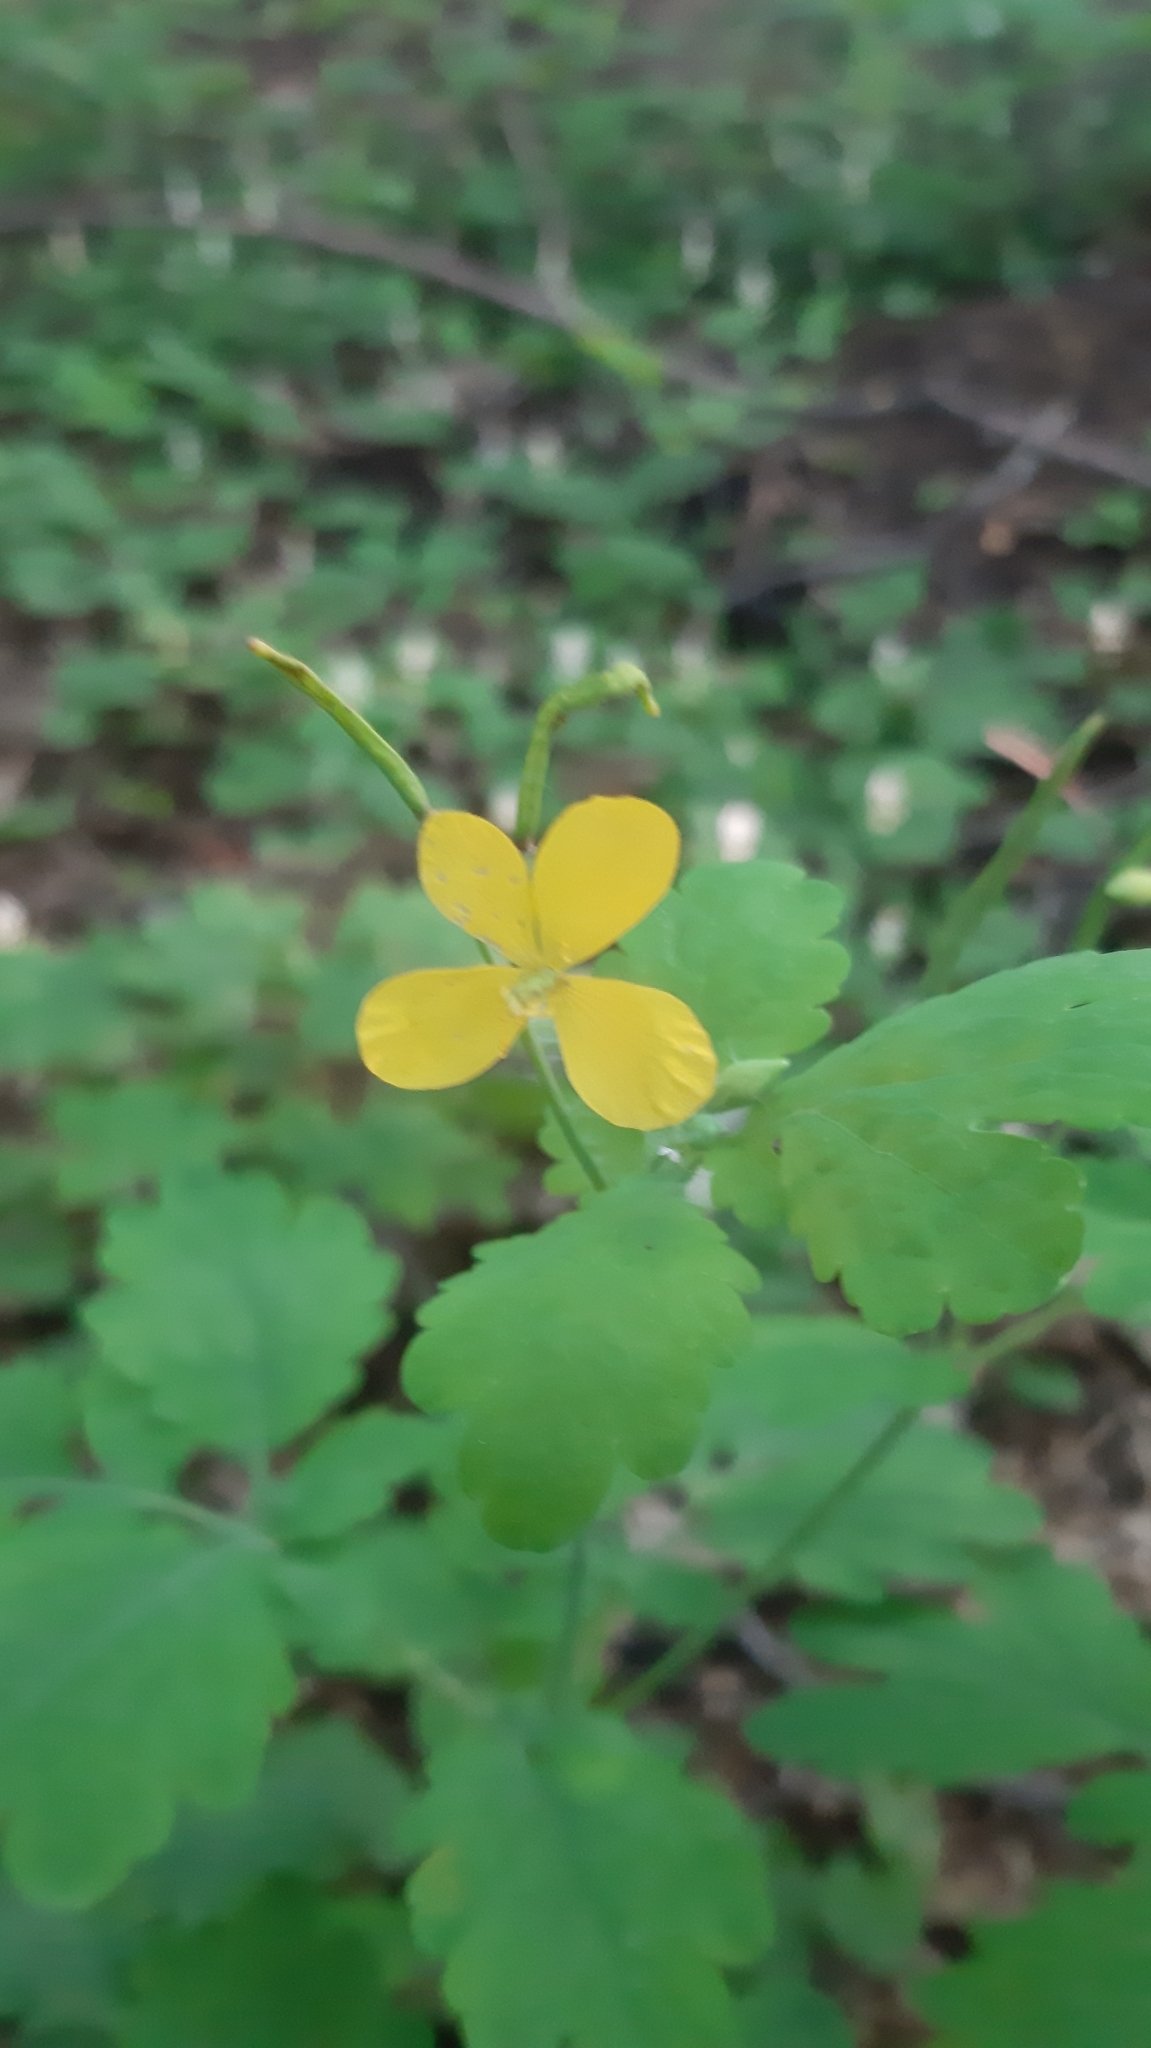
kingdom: Plantae
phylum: Tracheophyta
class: Magnoliopsida
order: Ranunculales
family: Papaveraceae
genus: Chelidonium
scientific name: Chelidonium majus
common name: Greater celandine
